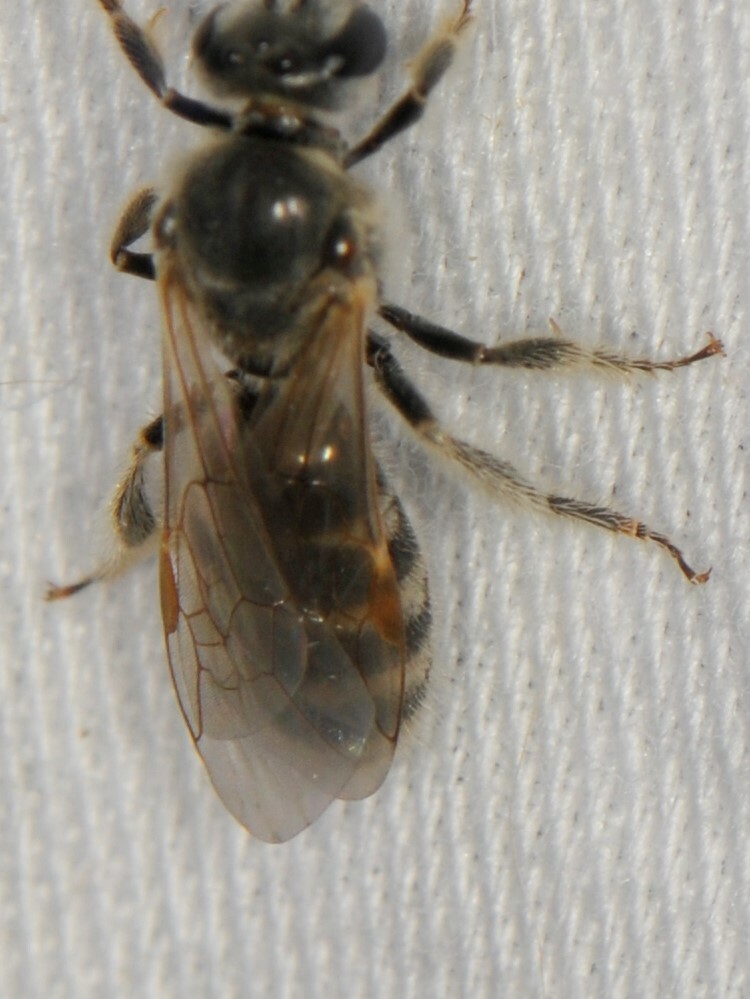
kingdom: Animalia
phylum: Arthropoda
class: Insecta
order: Hymenoptera
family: Halictidae
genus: Sphecodogastra
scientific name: Sphecodogastra
